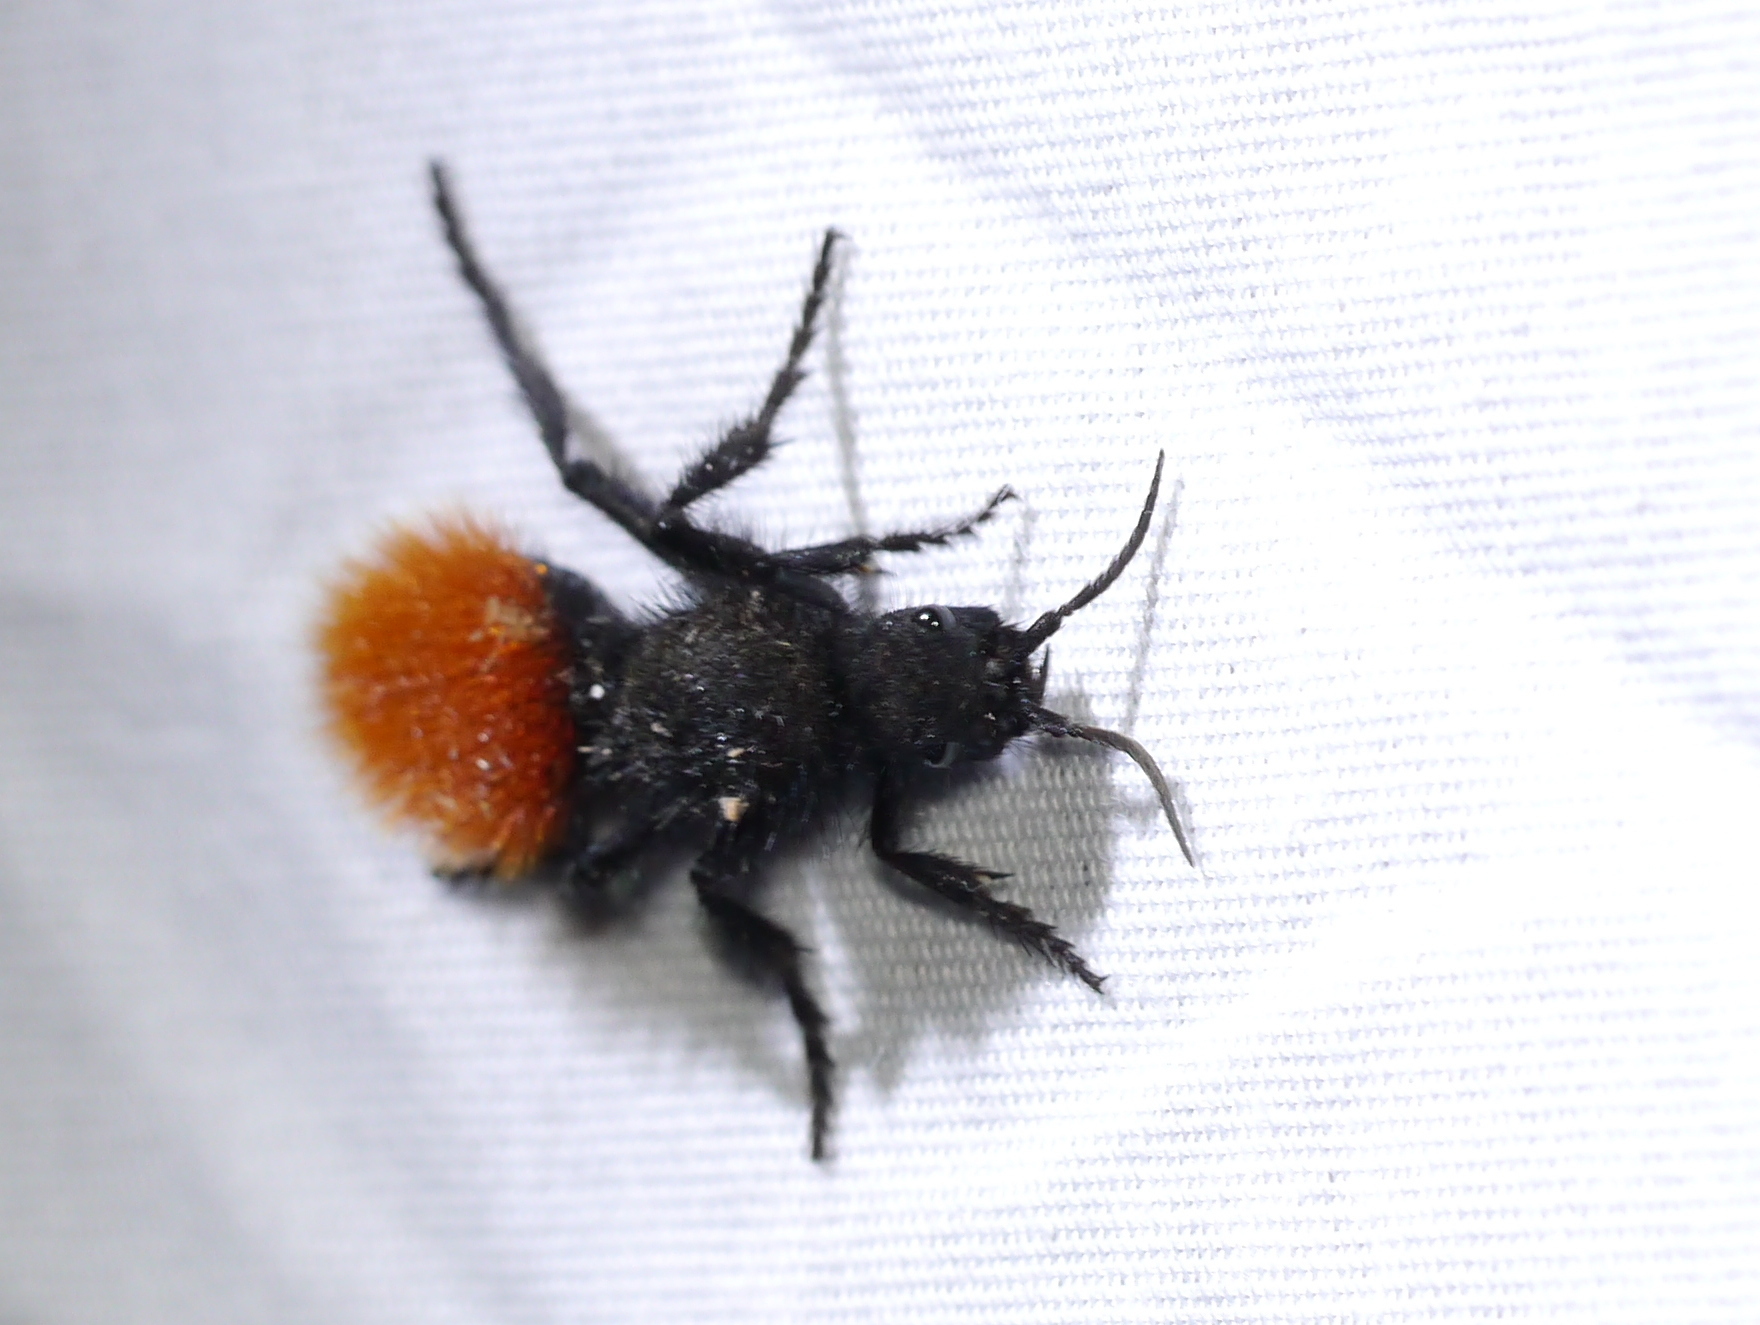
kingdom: Animalia
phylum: Arthropoda
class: Insecta
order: Hymenoptera
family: Mutillidae
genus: Dasymutilla
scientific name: Dasymutilla magnifica
